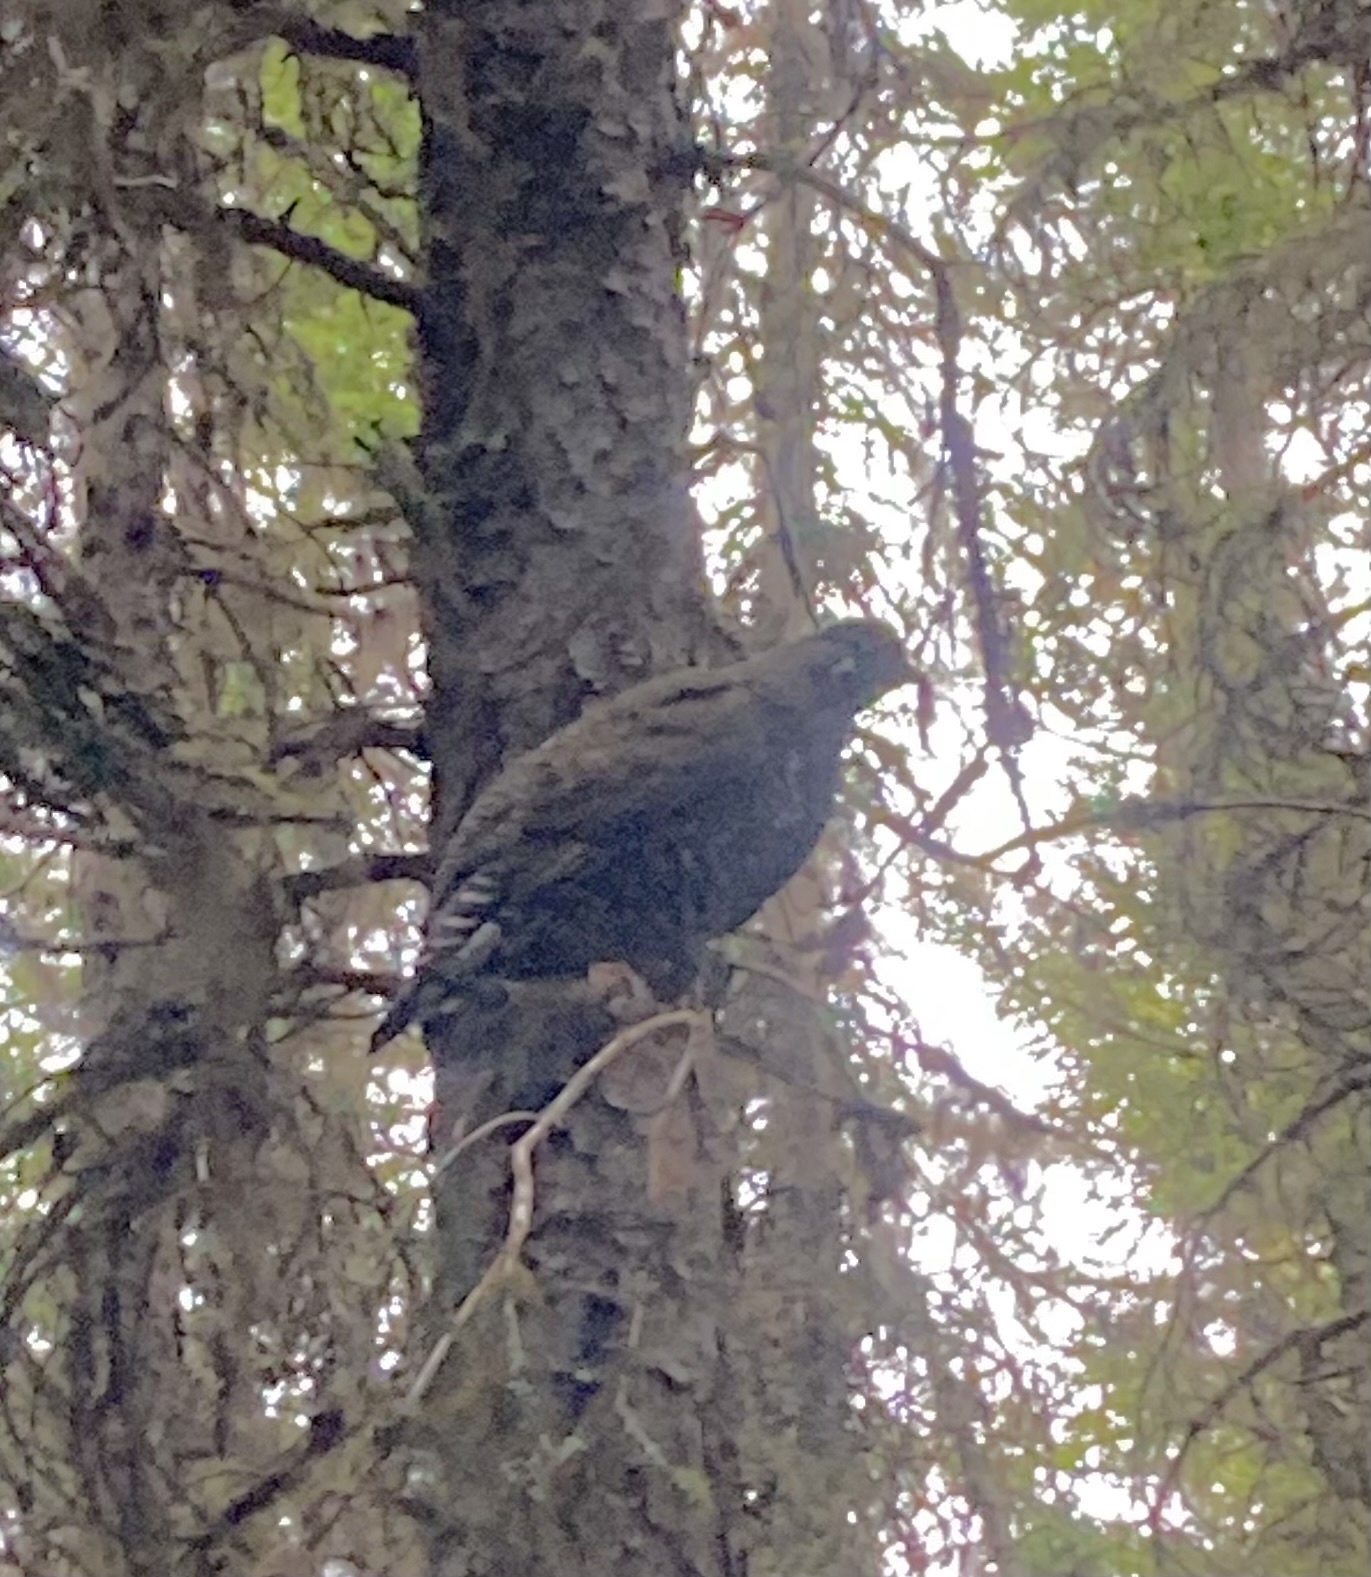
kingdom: Animalia
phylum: Chordata
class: Aves
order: Galliformes
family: Phasianidae
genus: Canachites
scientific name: Canachites canadensis
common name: Spruce grouse
